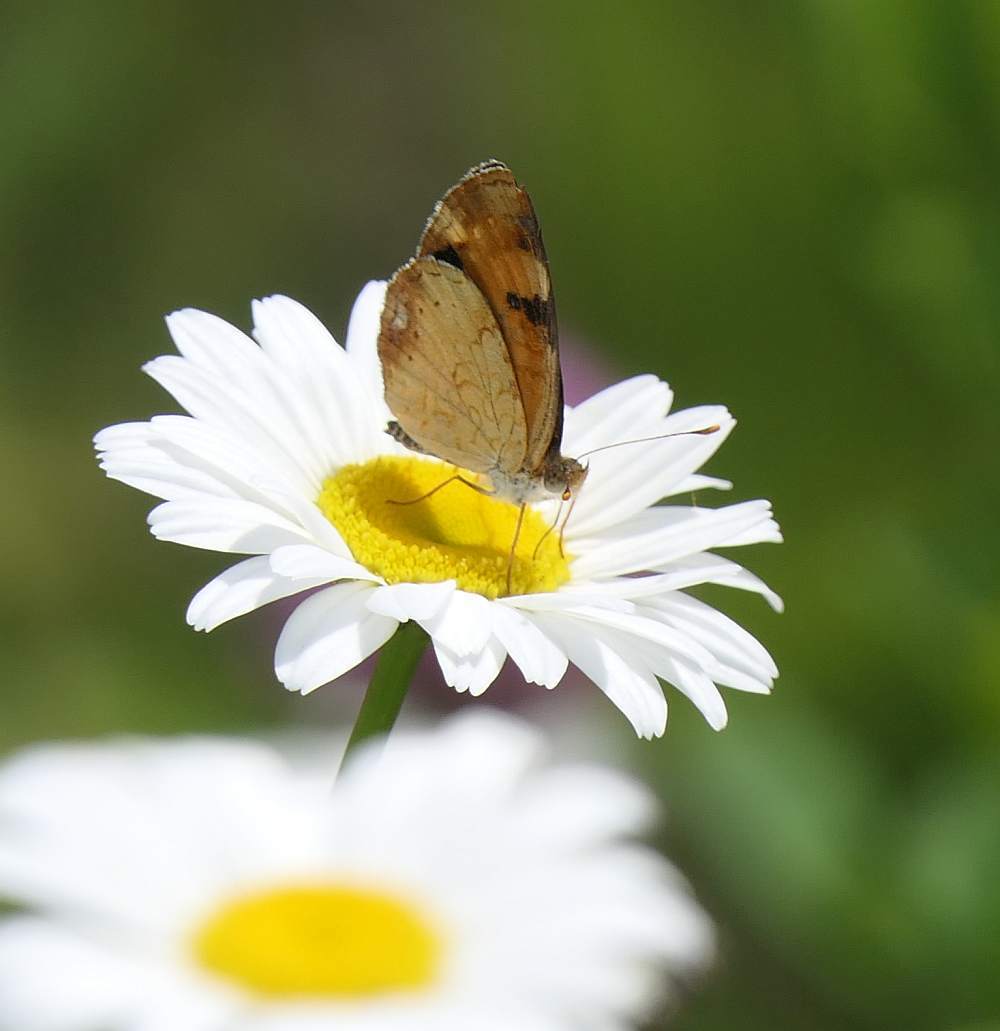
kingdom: Animalia
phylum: Arthropoda
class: Insecta
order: Lepidoptera
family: Nymphalidae
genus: Phyciodes
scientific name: Phyciodes tharos
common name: Pearl crescent
